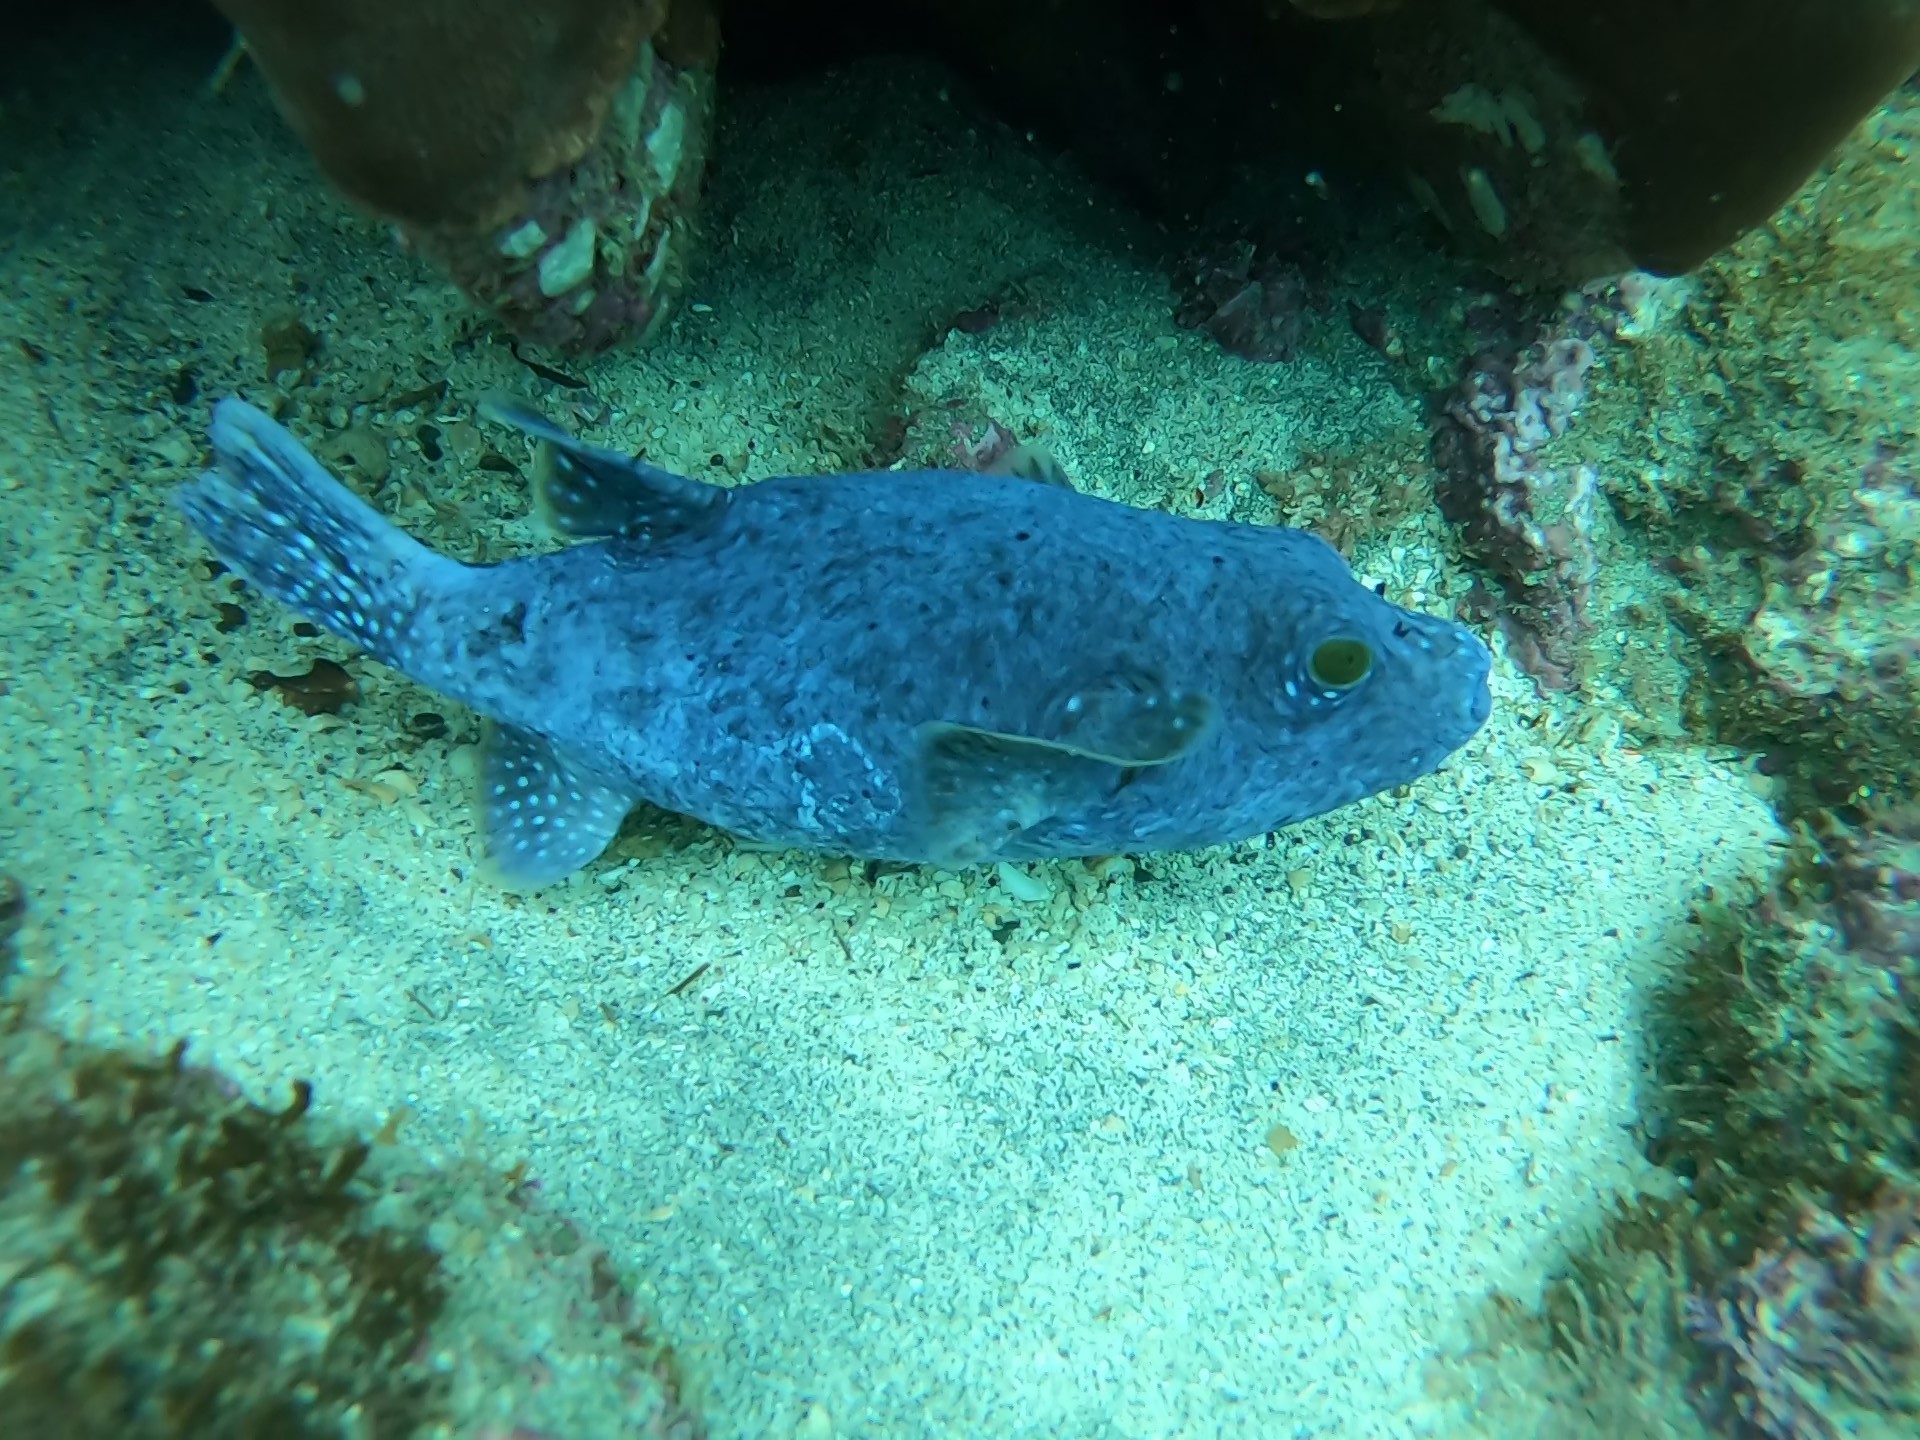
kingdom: Animalia
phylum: Chordata
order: Tetraodontiformes
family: Tetraodontidae
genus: Arothron
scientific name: Arothron meleagris
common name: Guinea-fowl pufferfish
